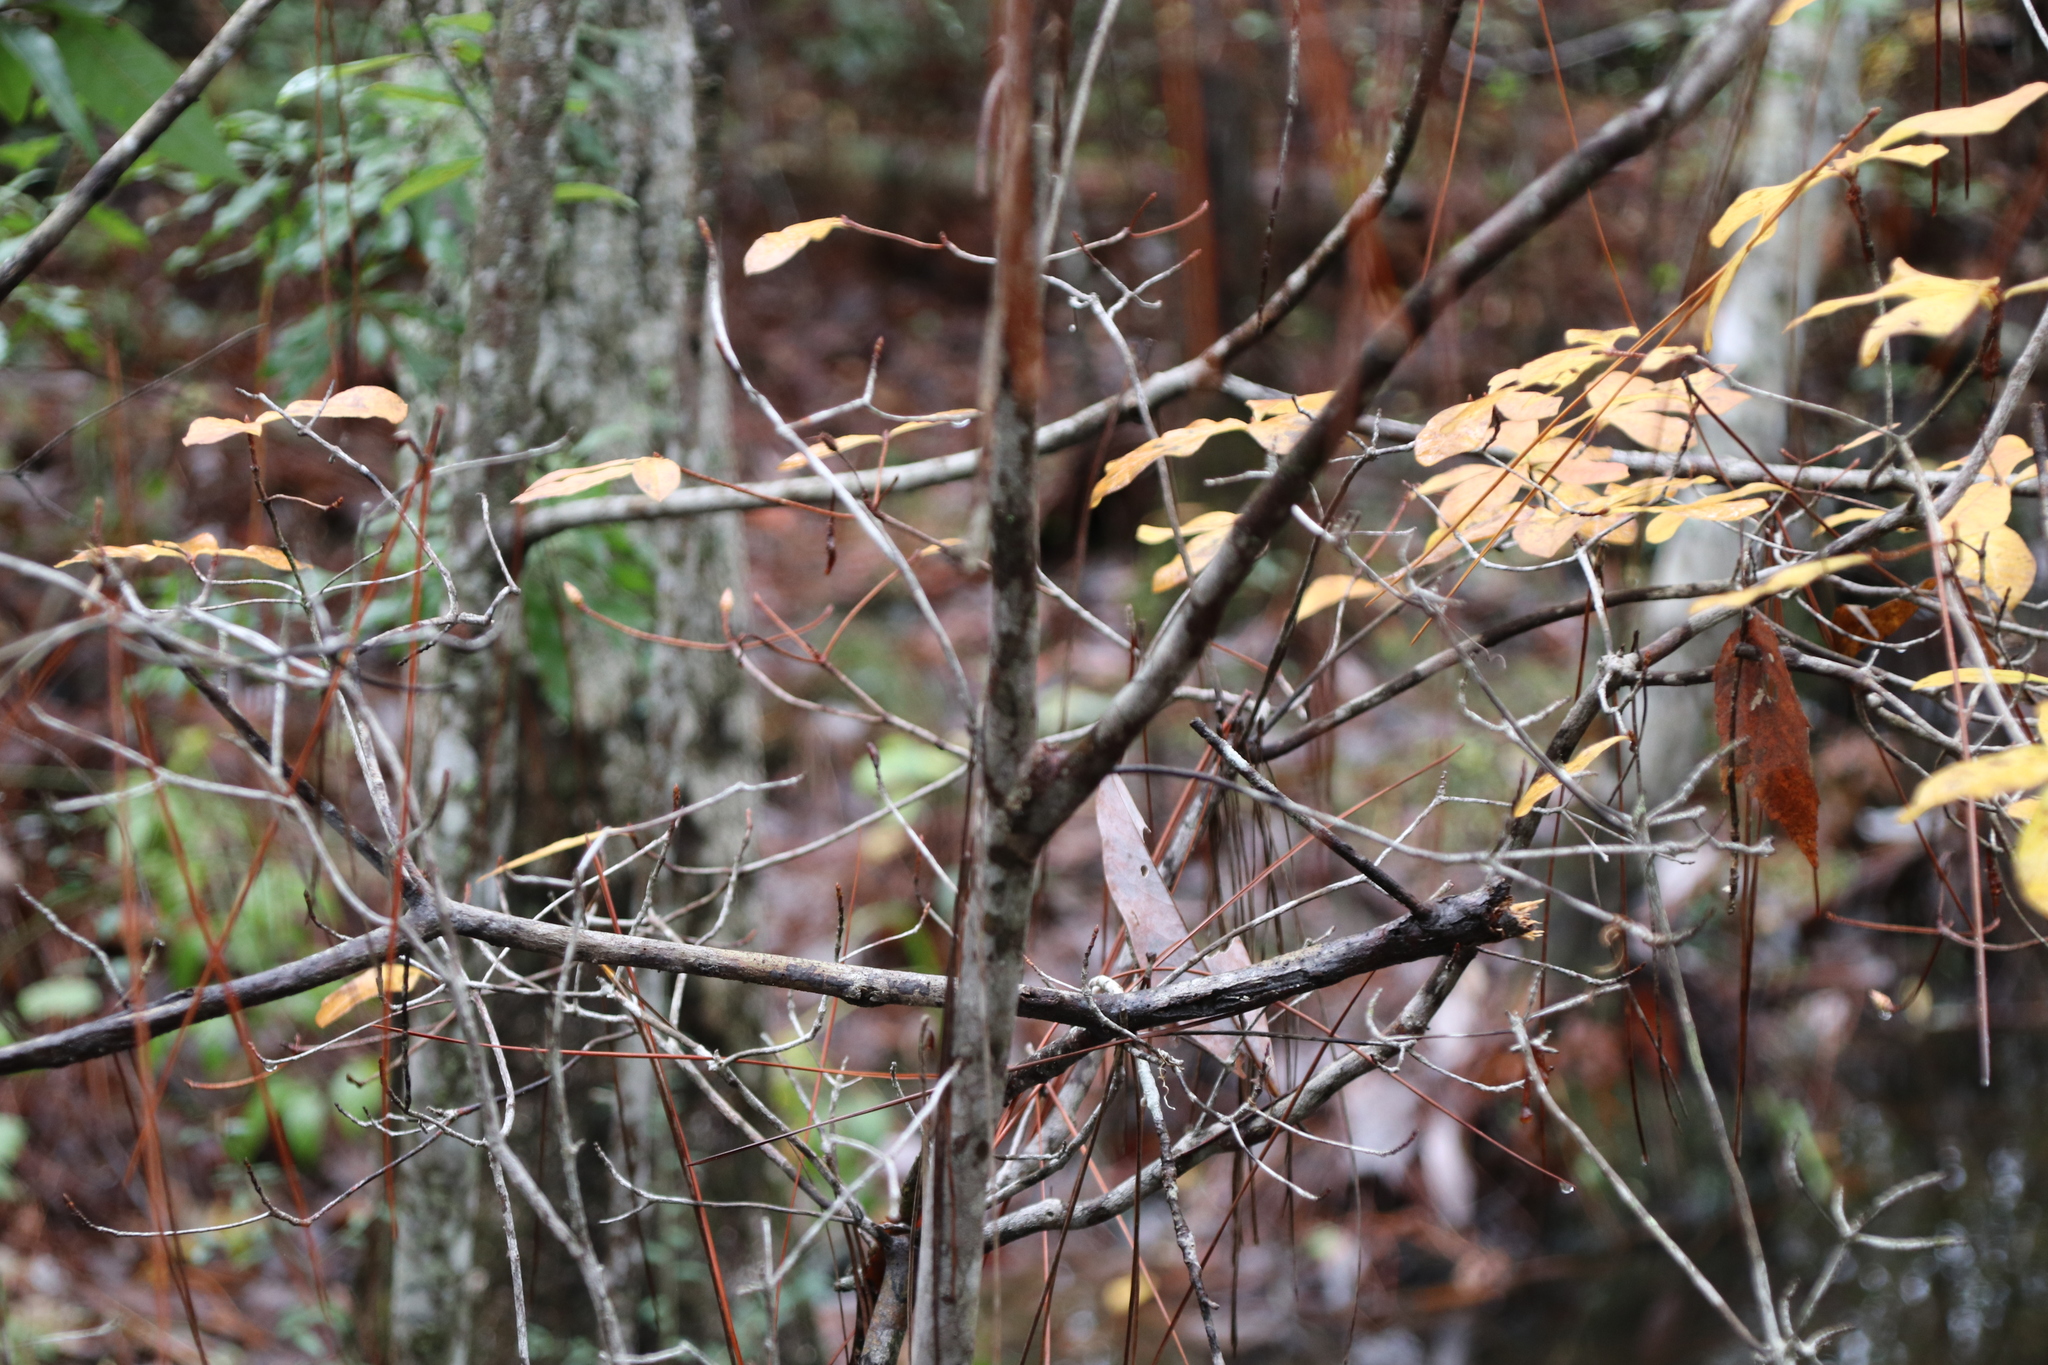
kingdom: Plantae
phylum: Tracheophyta
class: Magnoliopsida
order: Ericales
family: Ericaceae
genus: Rhododendron
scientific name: Rhododendron serrulatum
